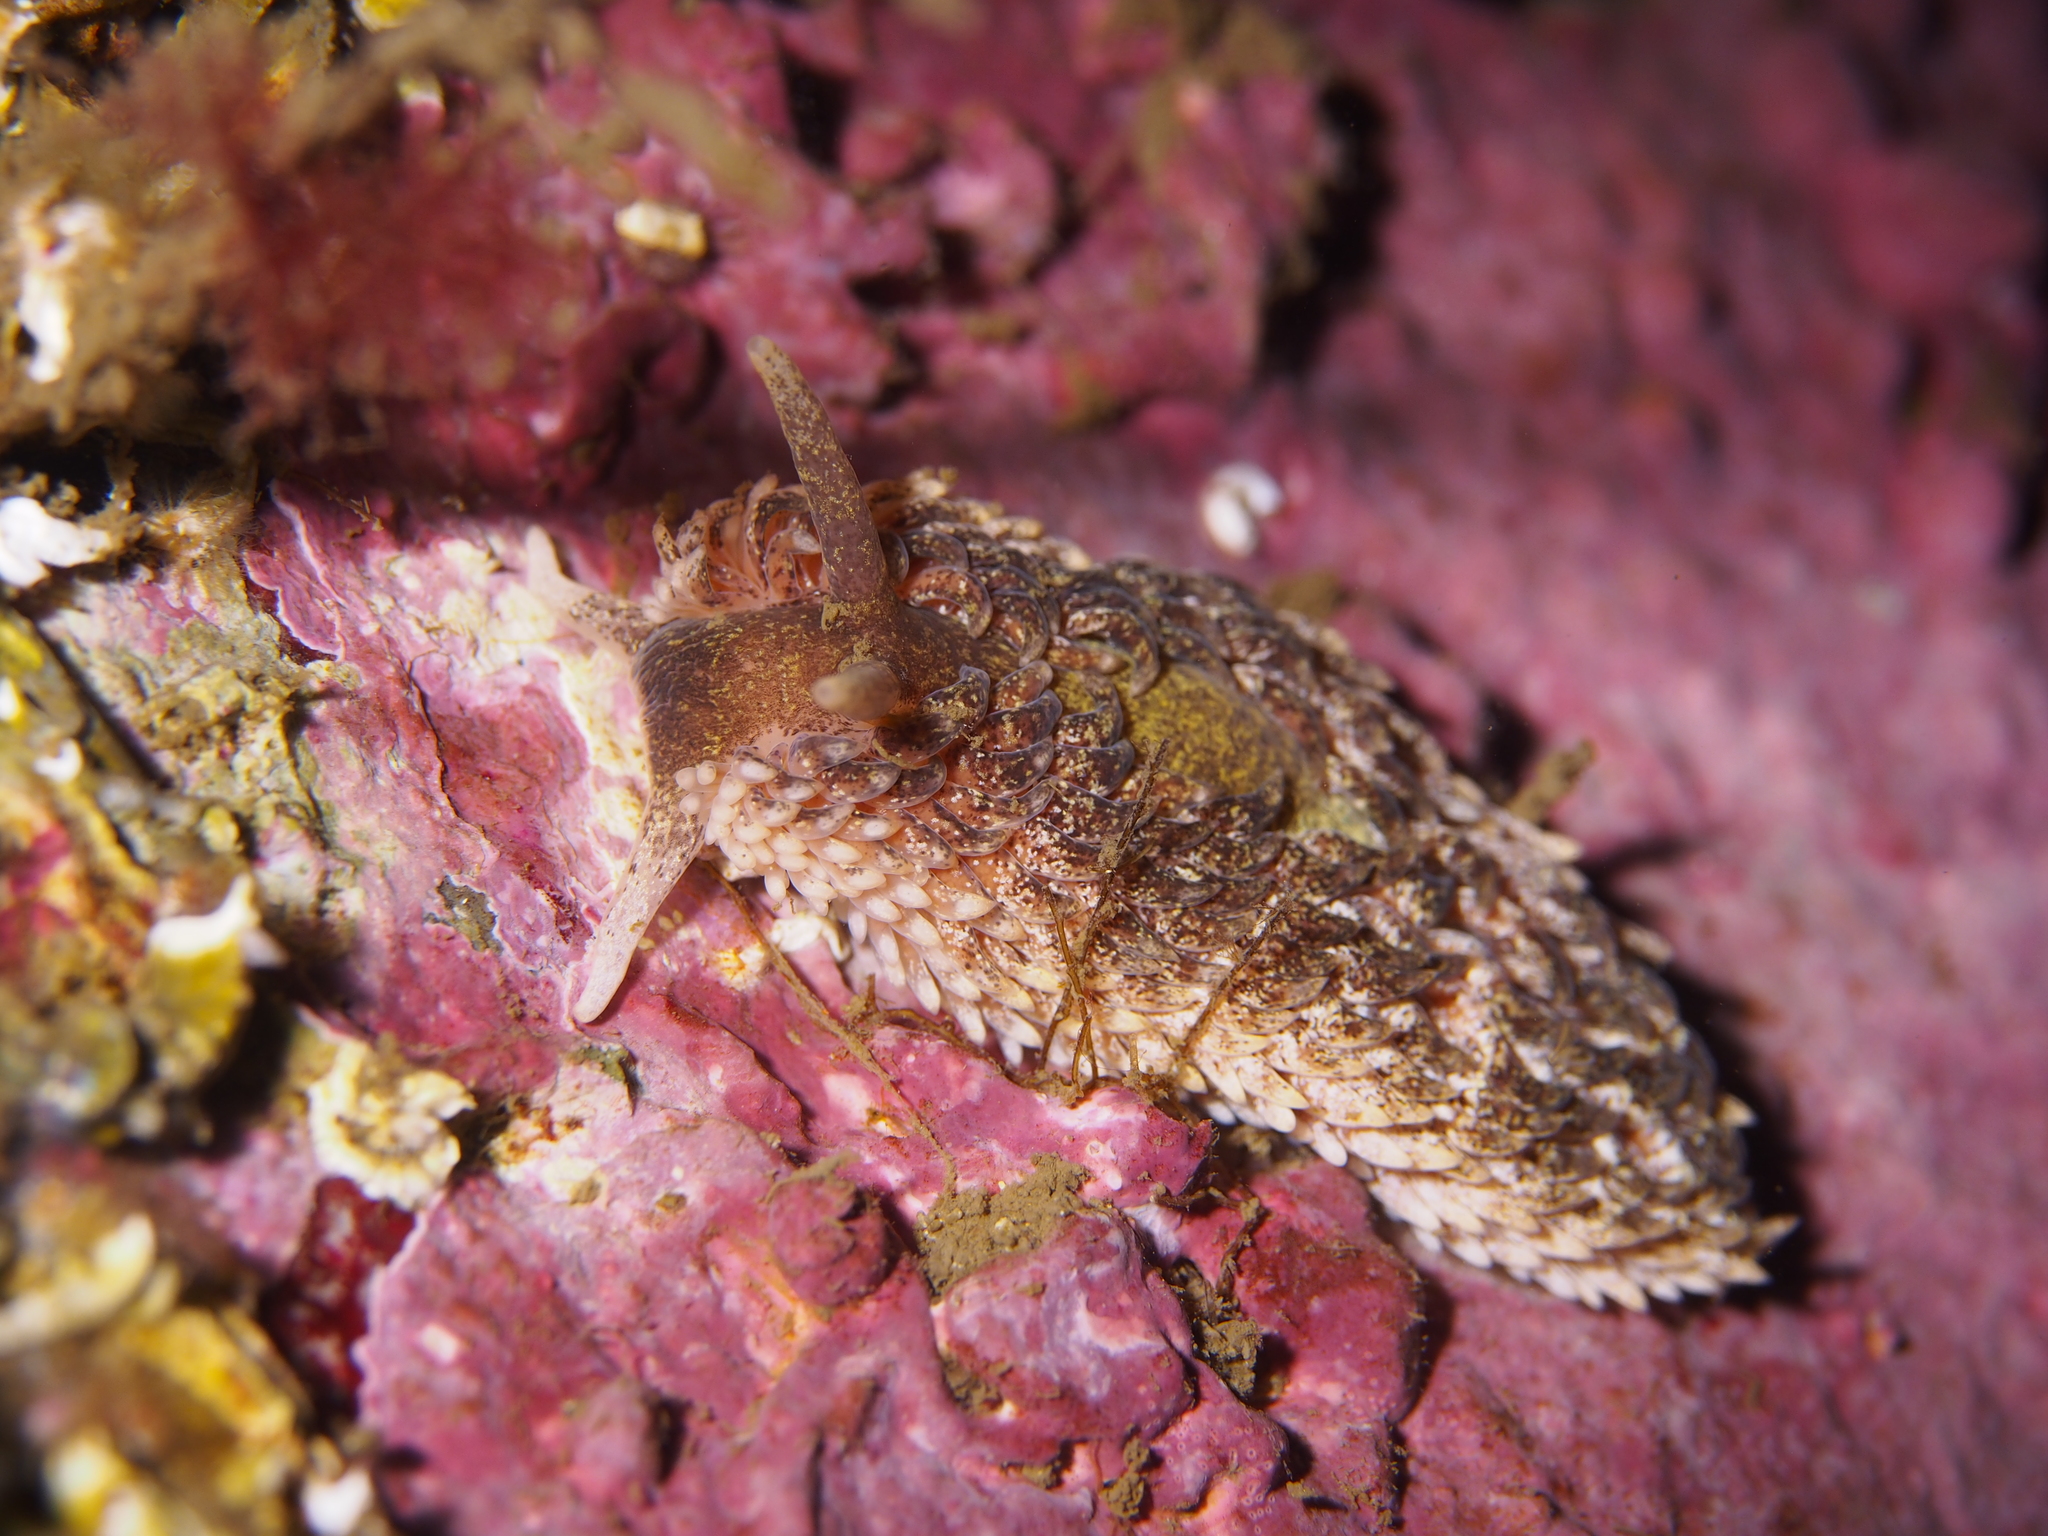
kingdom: Animalia
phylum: Mollusca
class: Gastropoda
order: Nudibranchia
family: Aeolidiidae
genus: Aeolidia
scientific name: Aeolidia papillosa
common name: Common grey sea slug
